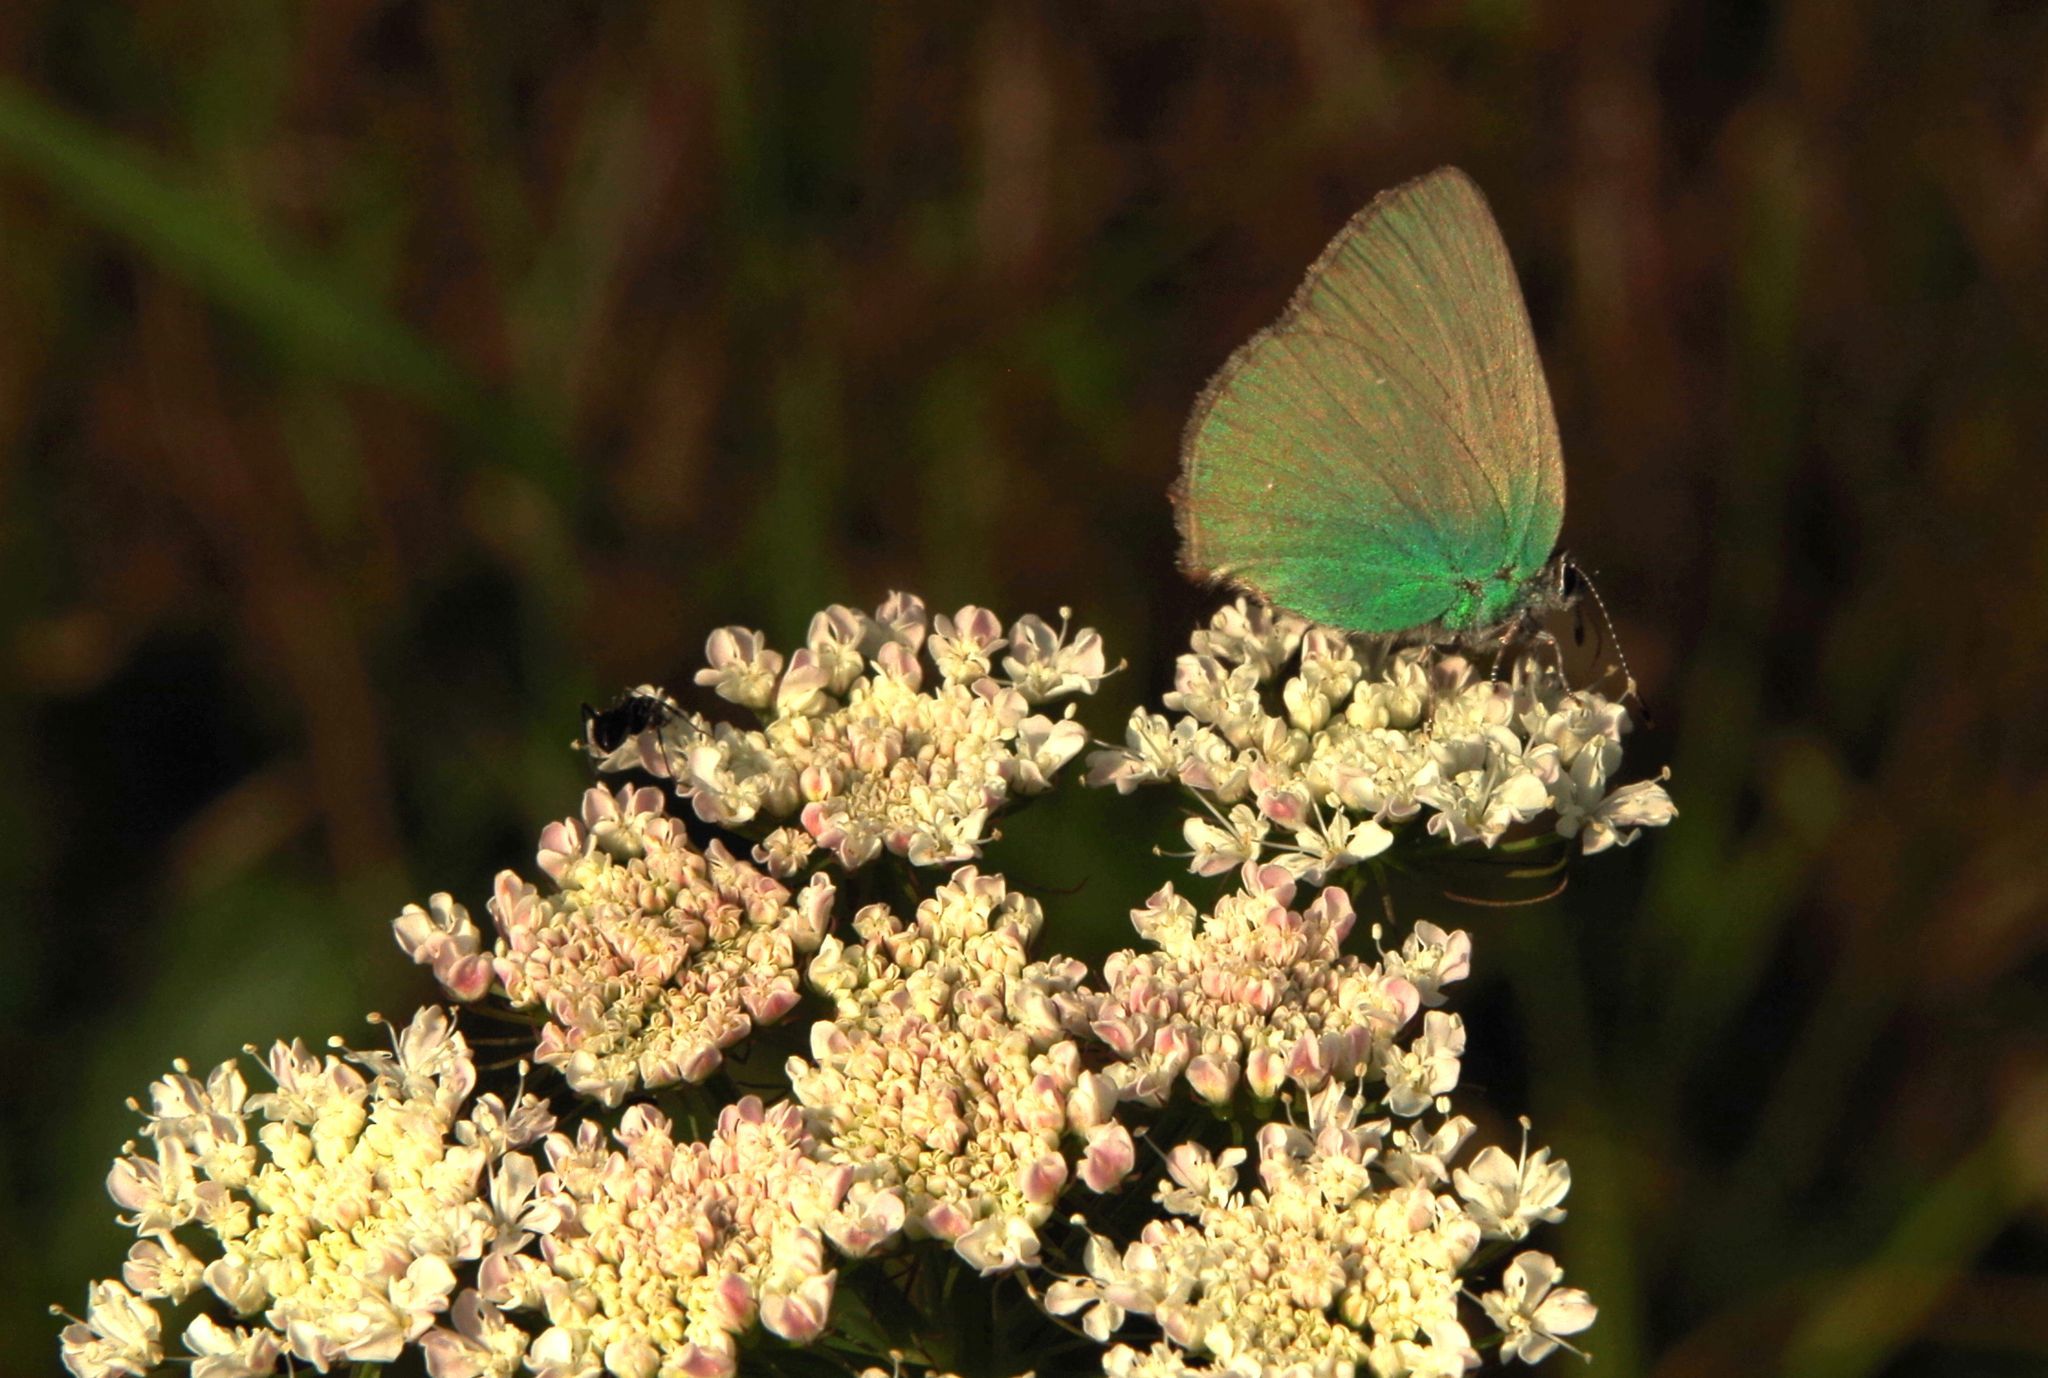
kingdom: Animalia
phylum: Arthropoda
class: Insecta
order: Lepidoptera
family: Lycaenidae
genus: Callophrys
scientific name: Callophrys rubi
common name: Green hairstreak
